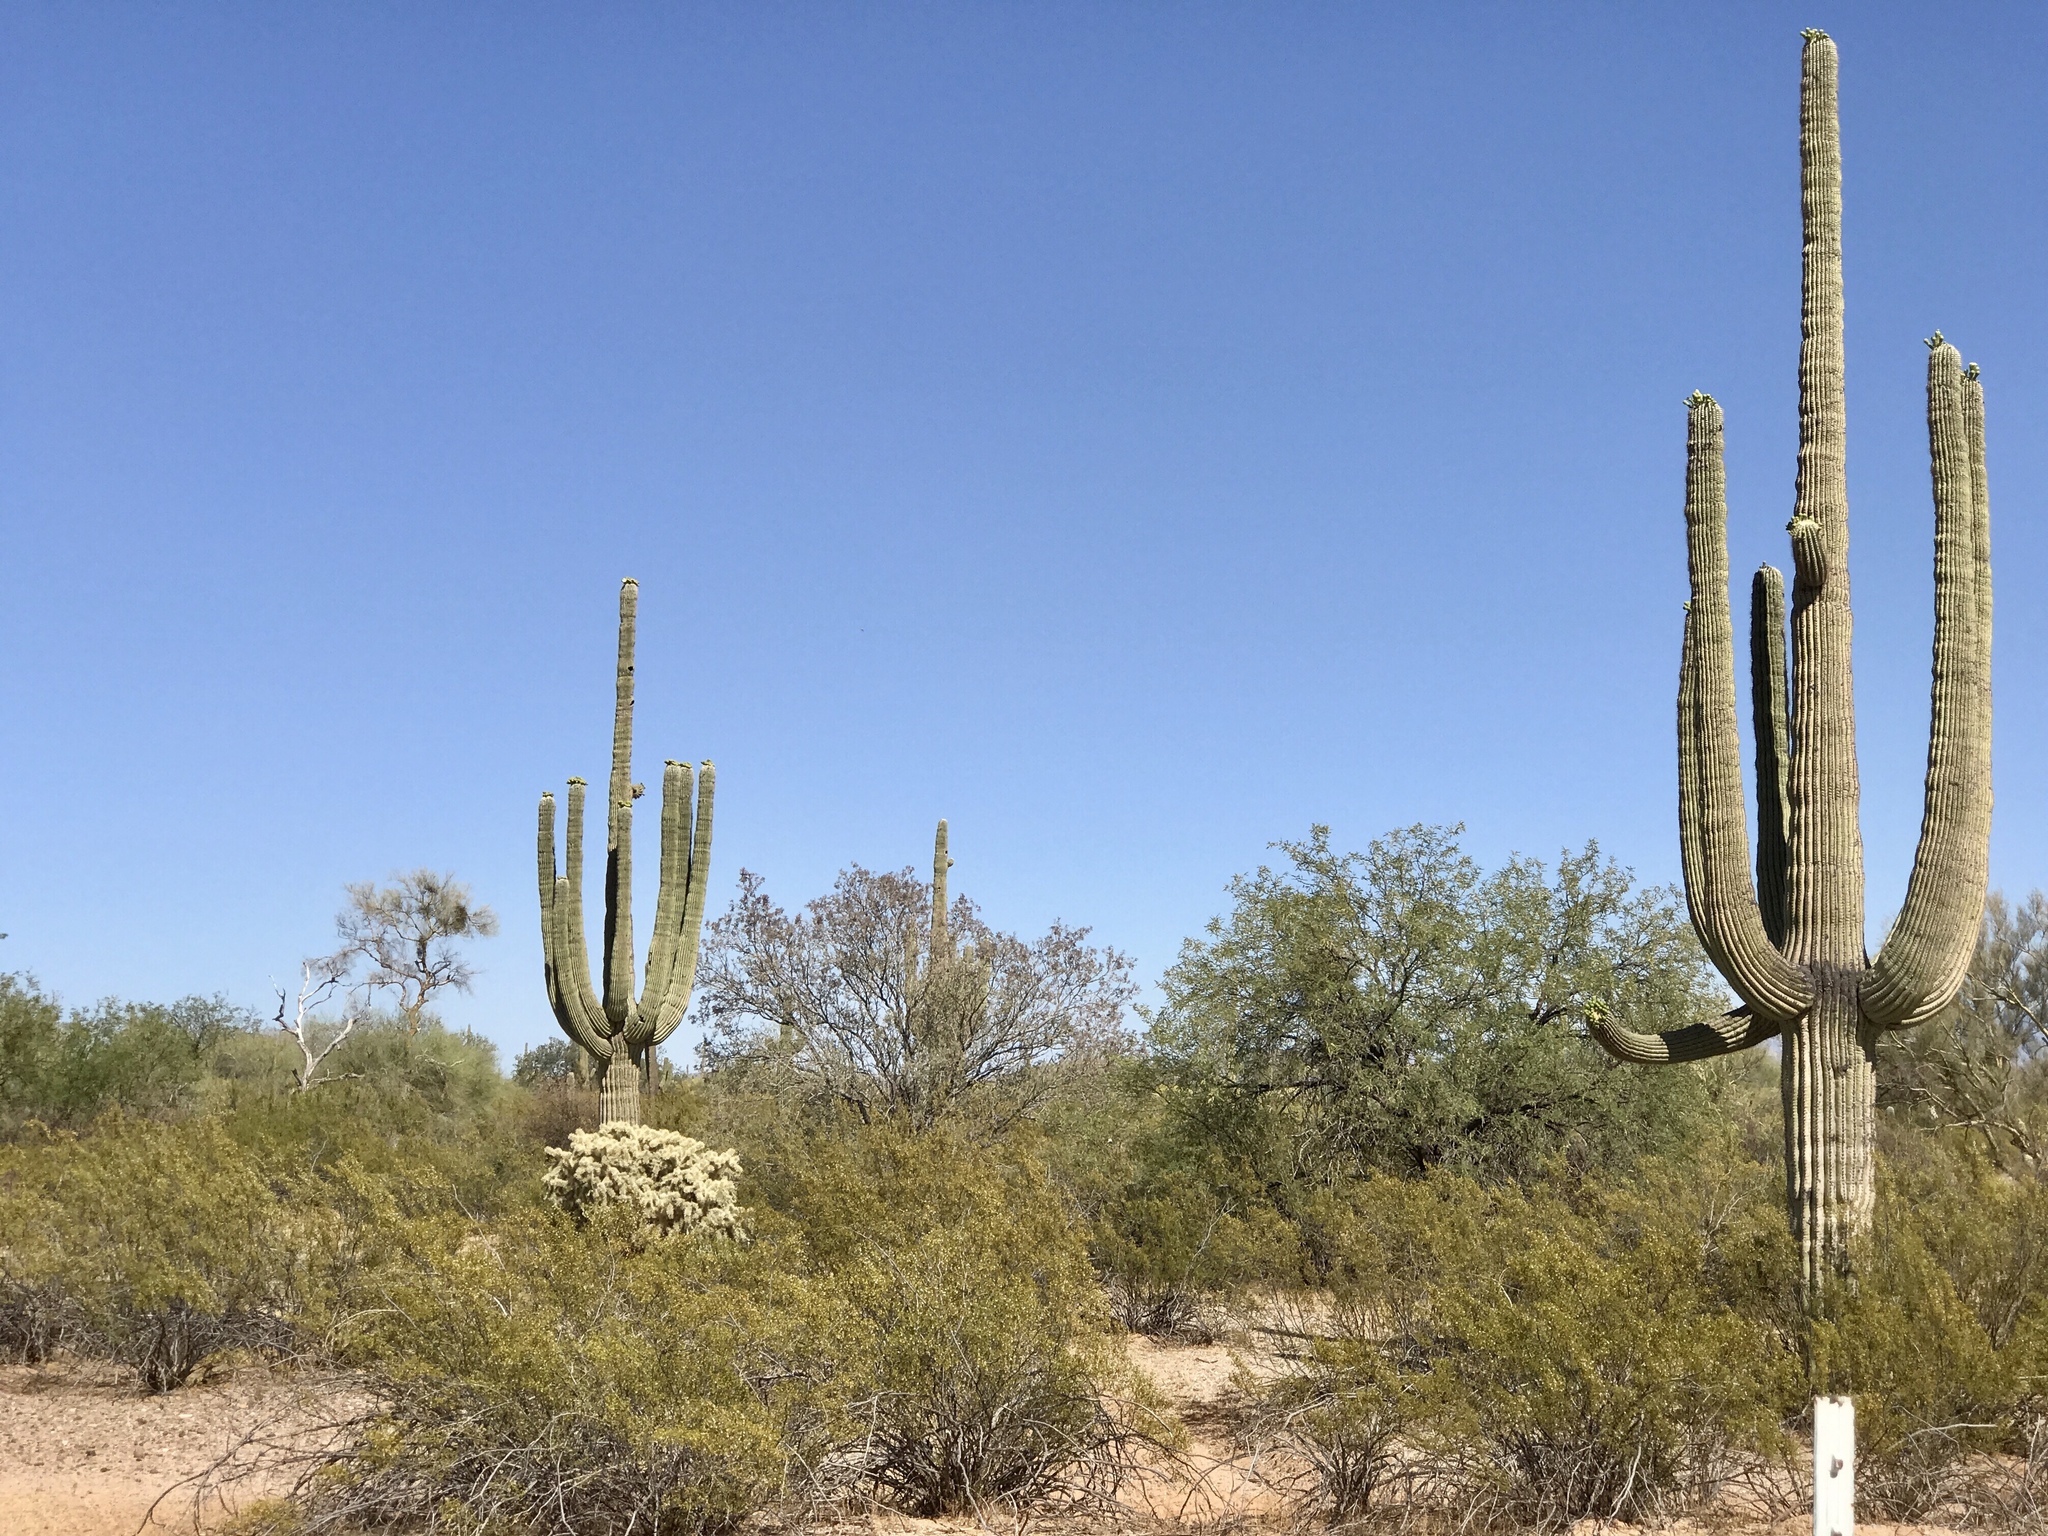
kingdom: Plantae
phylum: Tracheophyta
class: Magnoliopsida
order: Caryophyllales
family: Cactaceae
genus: Carnegiea
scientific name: Carnegiea gigantea
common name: Saguaro
